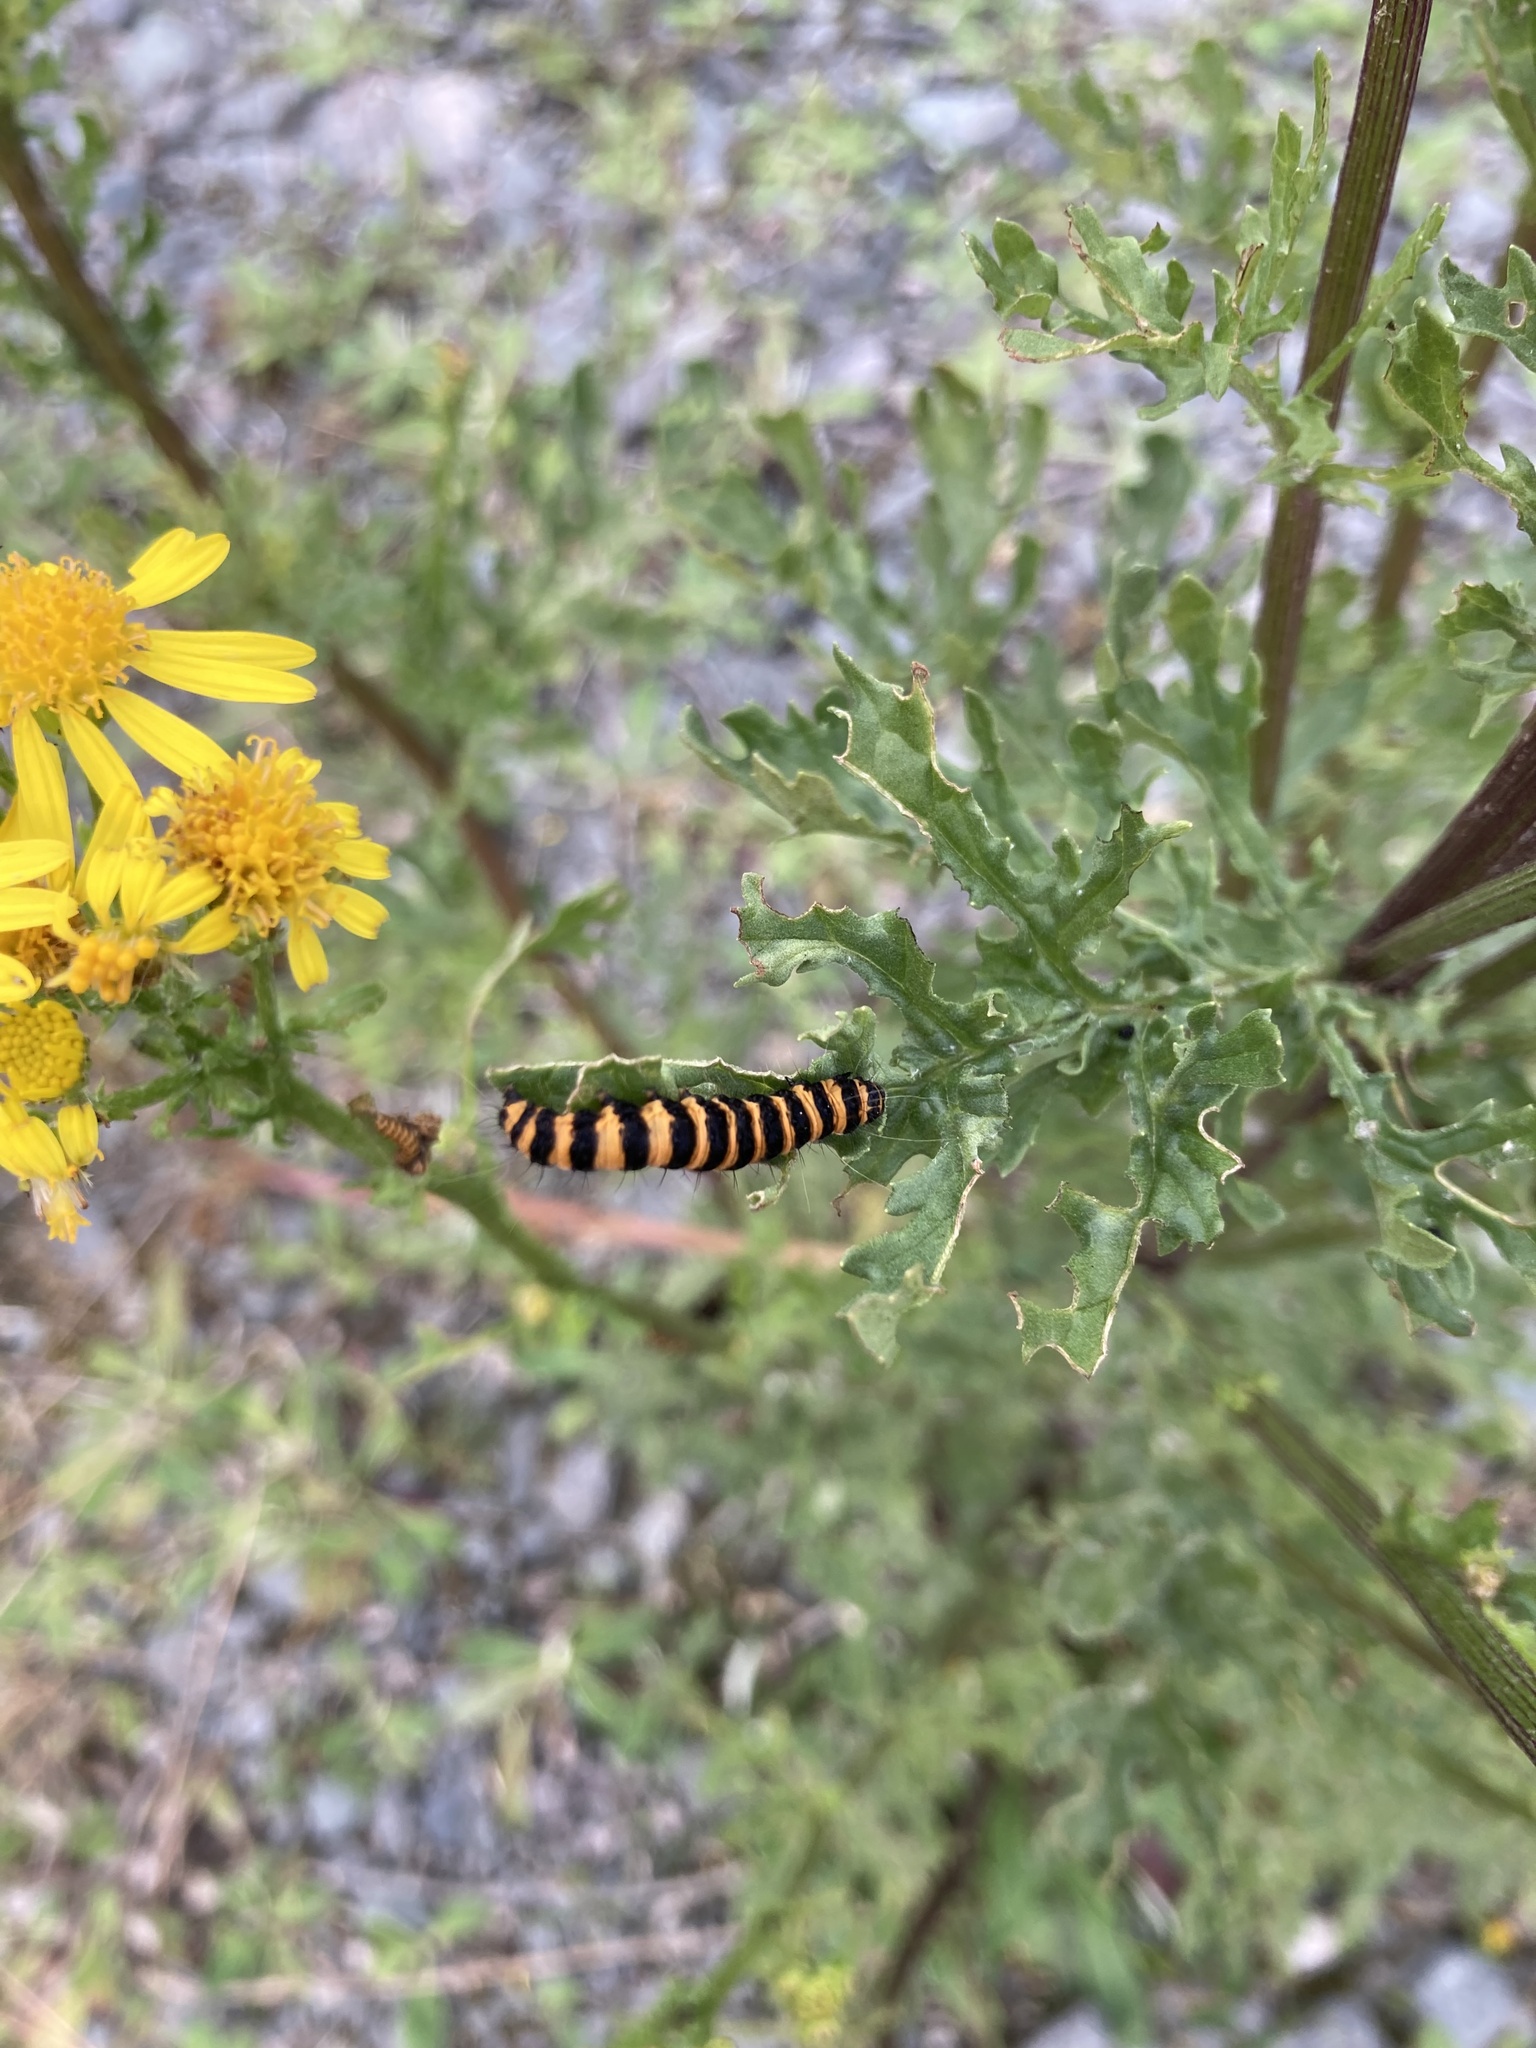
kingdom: Animalia
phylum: Arthropoda
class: Insecta
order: Lepidoptera
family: Erebidae
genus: Tyria
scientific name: Tyria jacobaeae
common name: Cinnabar
